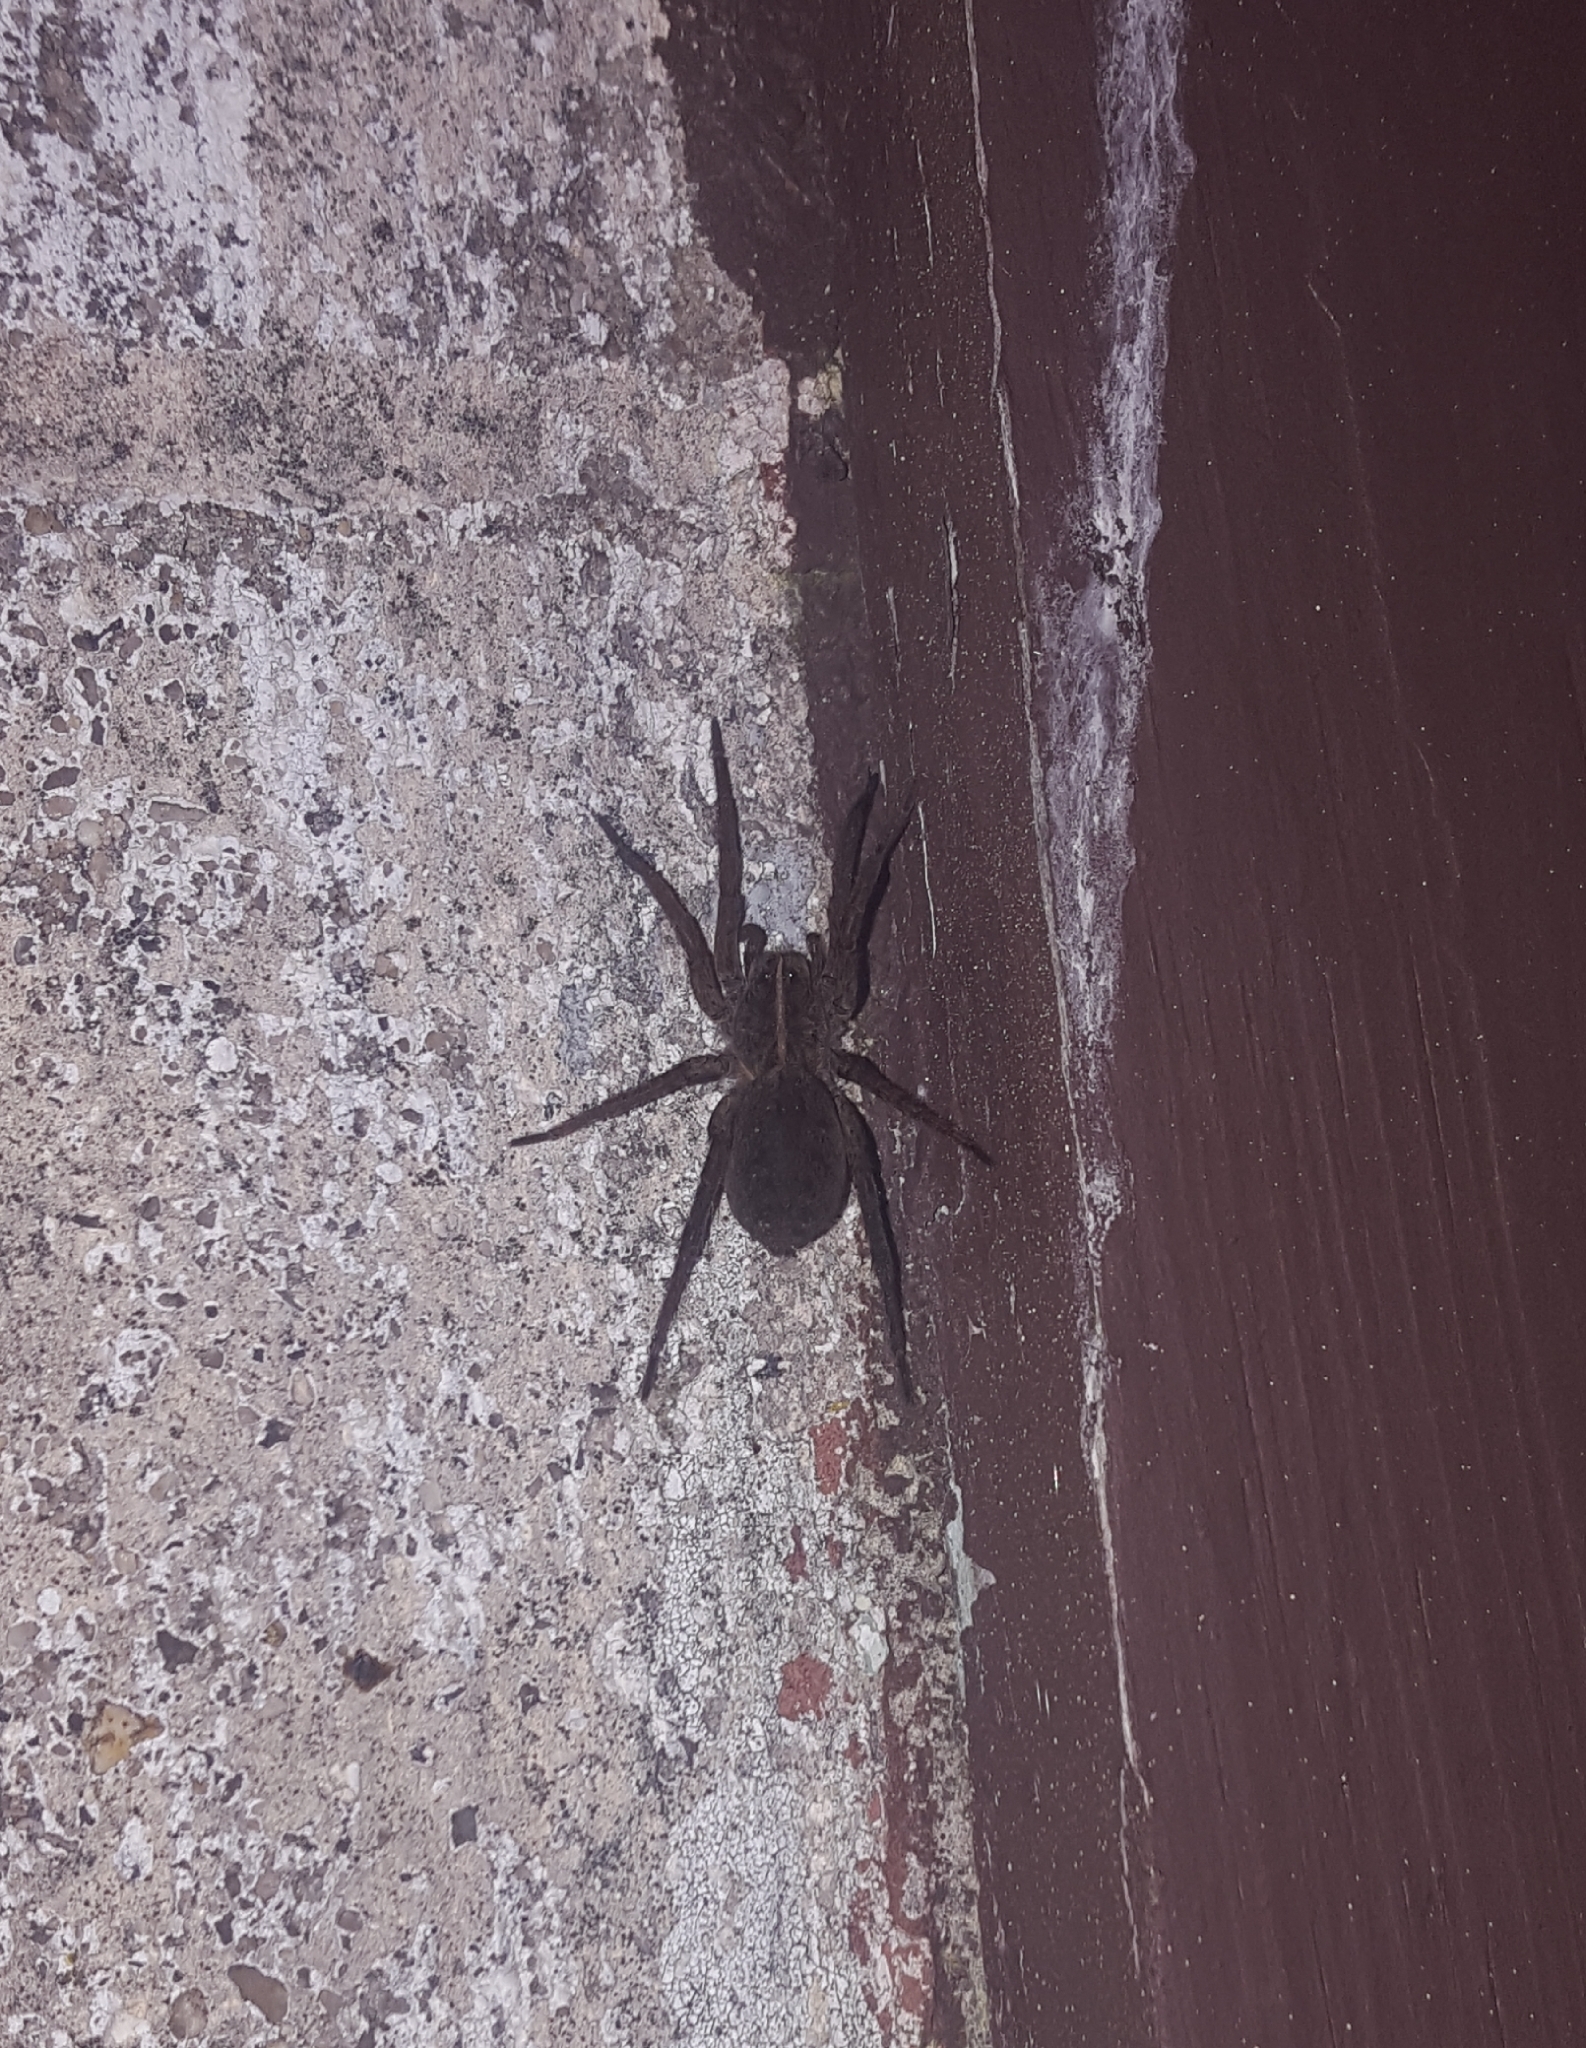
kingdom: Animalia
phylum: Arthropoda
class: Arachnida
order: Araneae
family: Lycosidae
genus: Tigrosa
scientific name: Tigrosa helluo
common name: Wetland giant wolf spider
